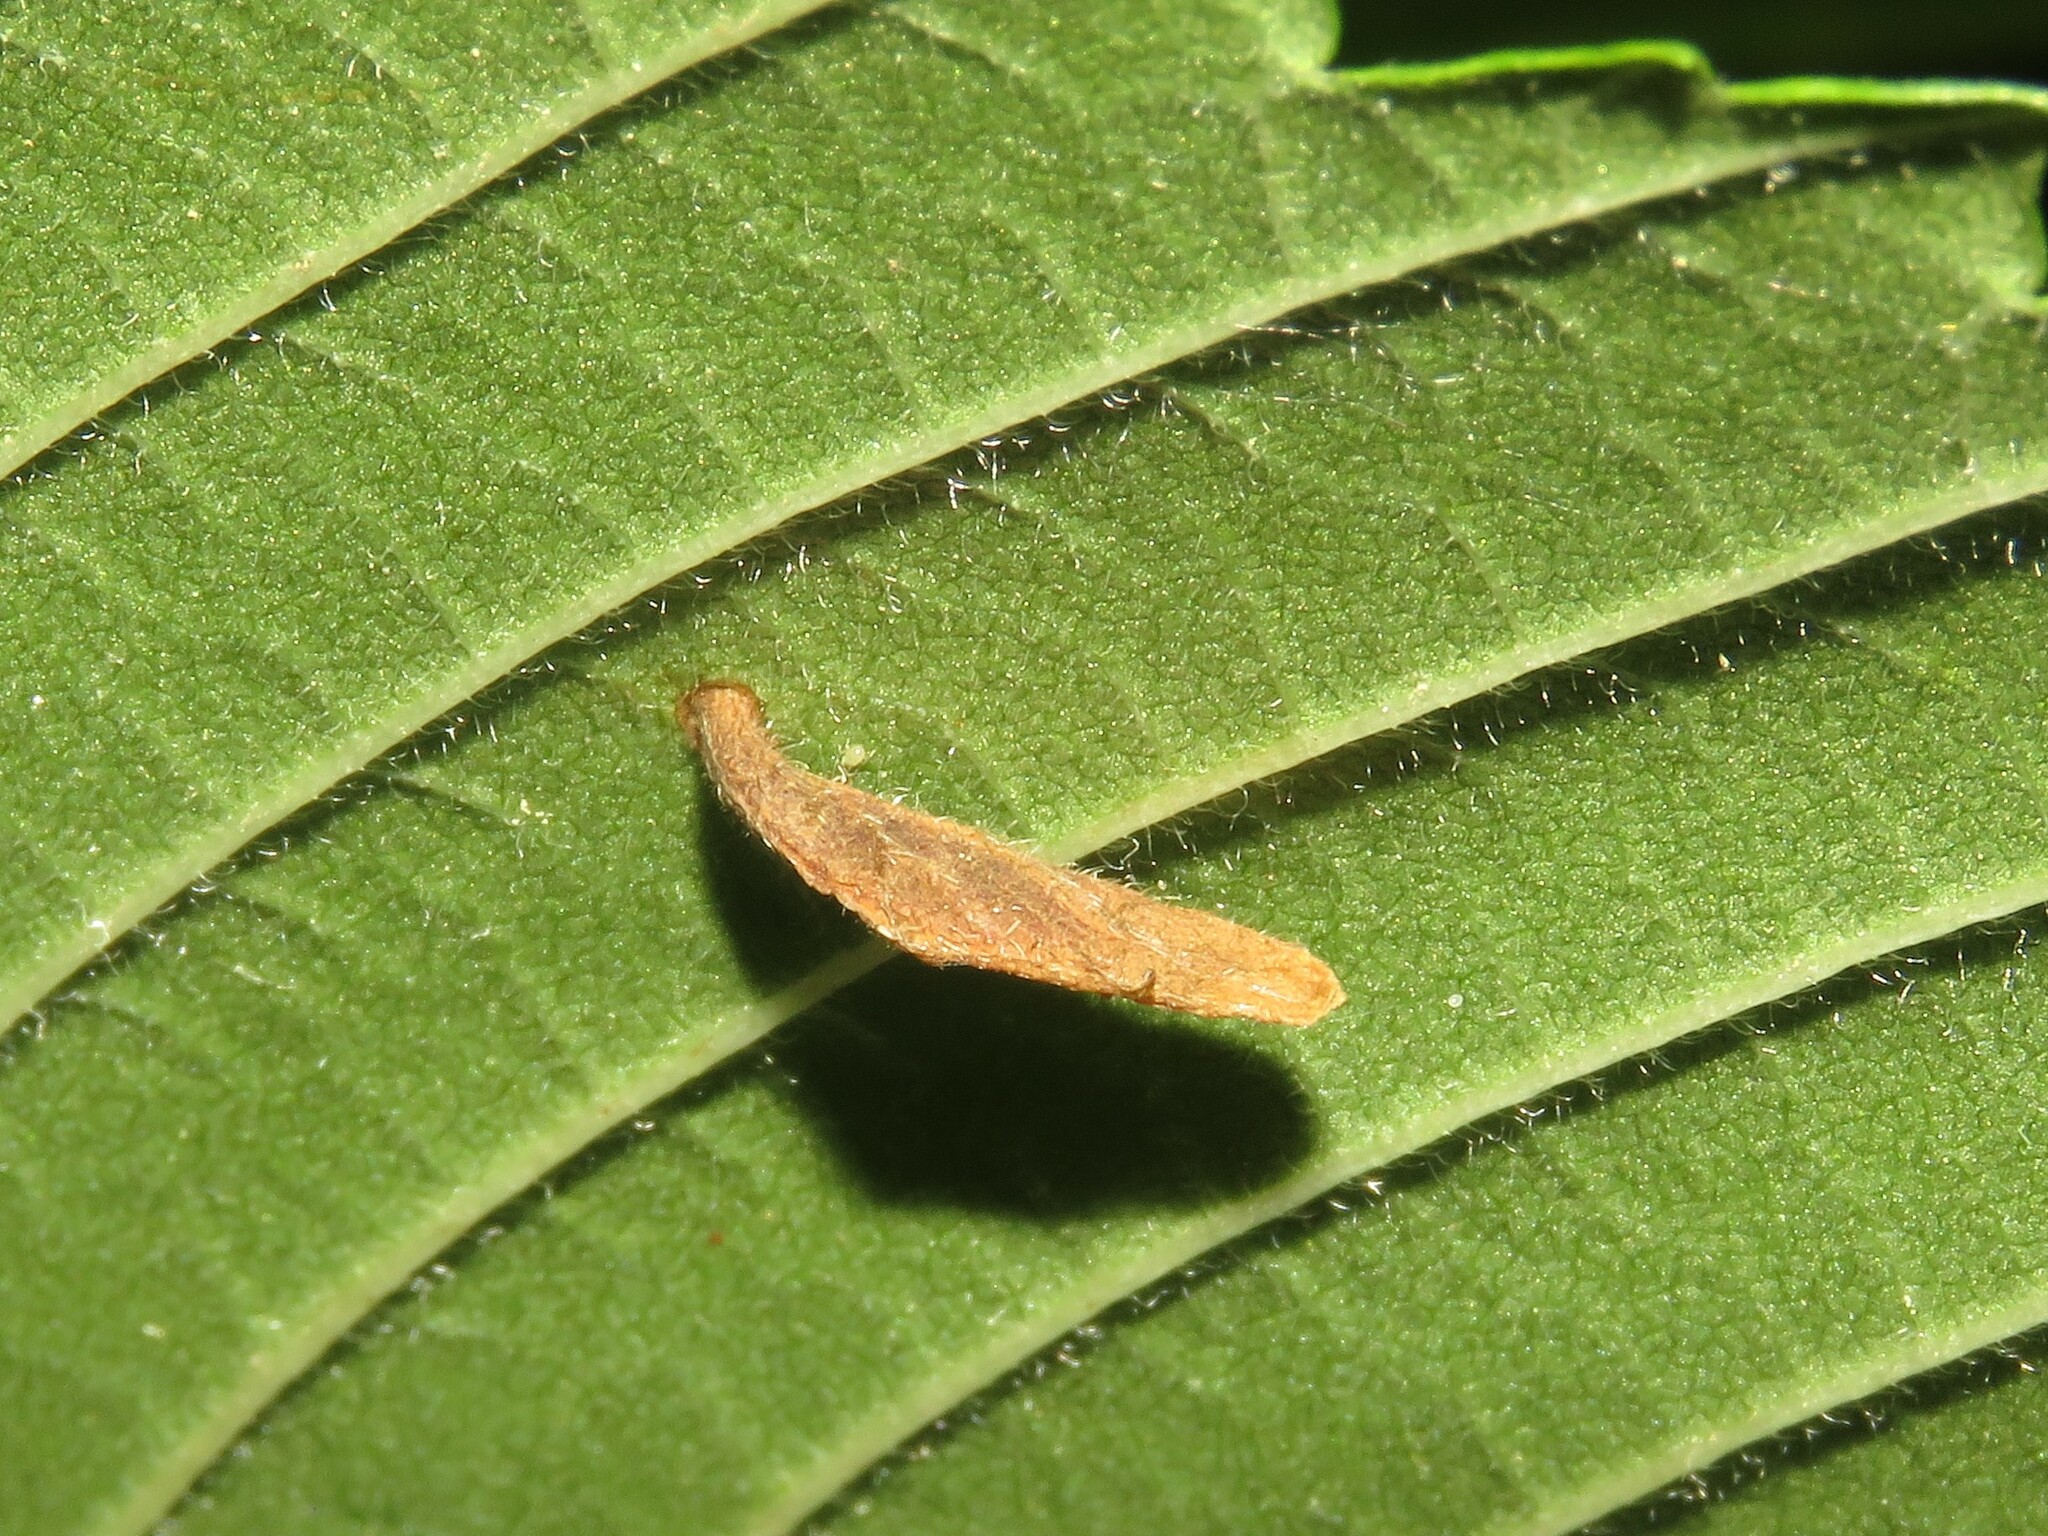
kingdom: Animalia
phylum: Arthropoda
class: Insecta
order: Lepidoptera
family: Coleophoridae
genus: Coleophora
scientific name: Coleophora limosipennella
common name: Dark elm case-bearer
